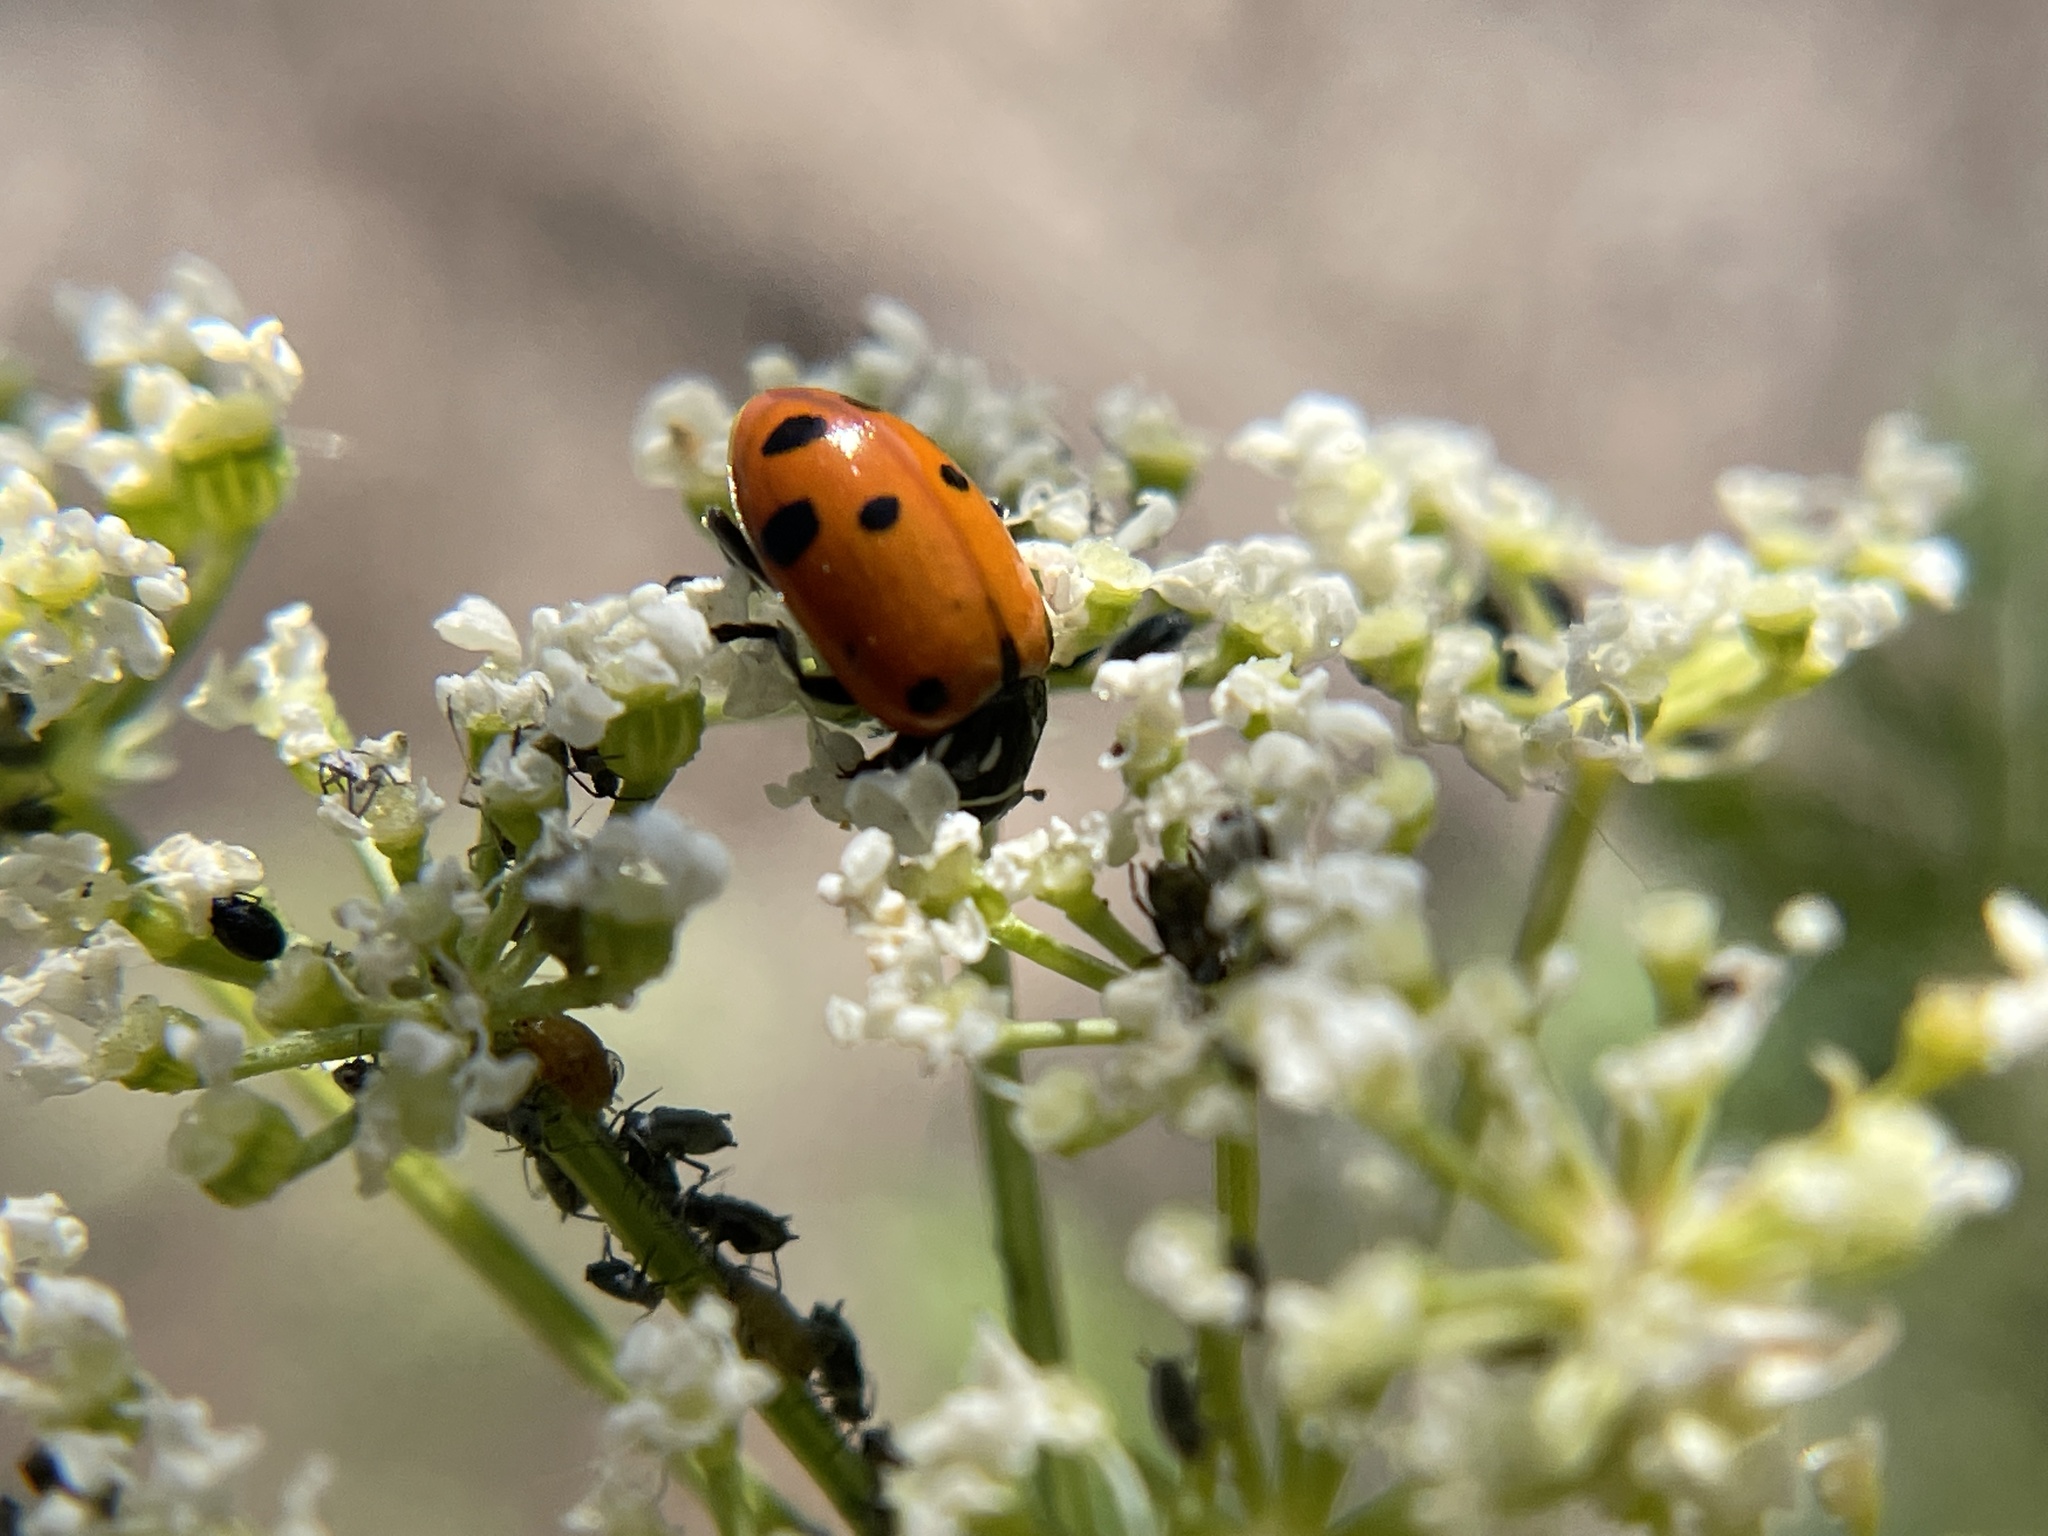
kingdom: Animalia
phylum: Arthropoda
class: Insecta
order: Coleoptera
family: Coccinellidae
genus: Hippodamia
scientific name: Hippodamia convergens
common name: Convergent lady beetle
